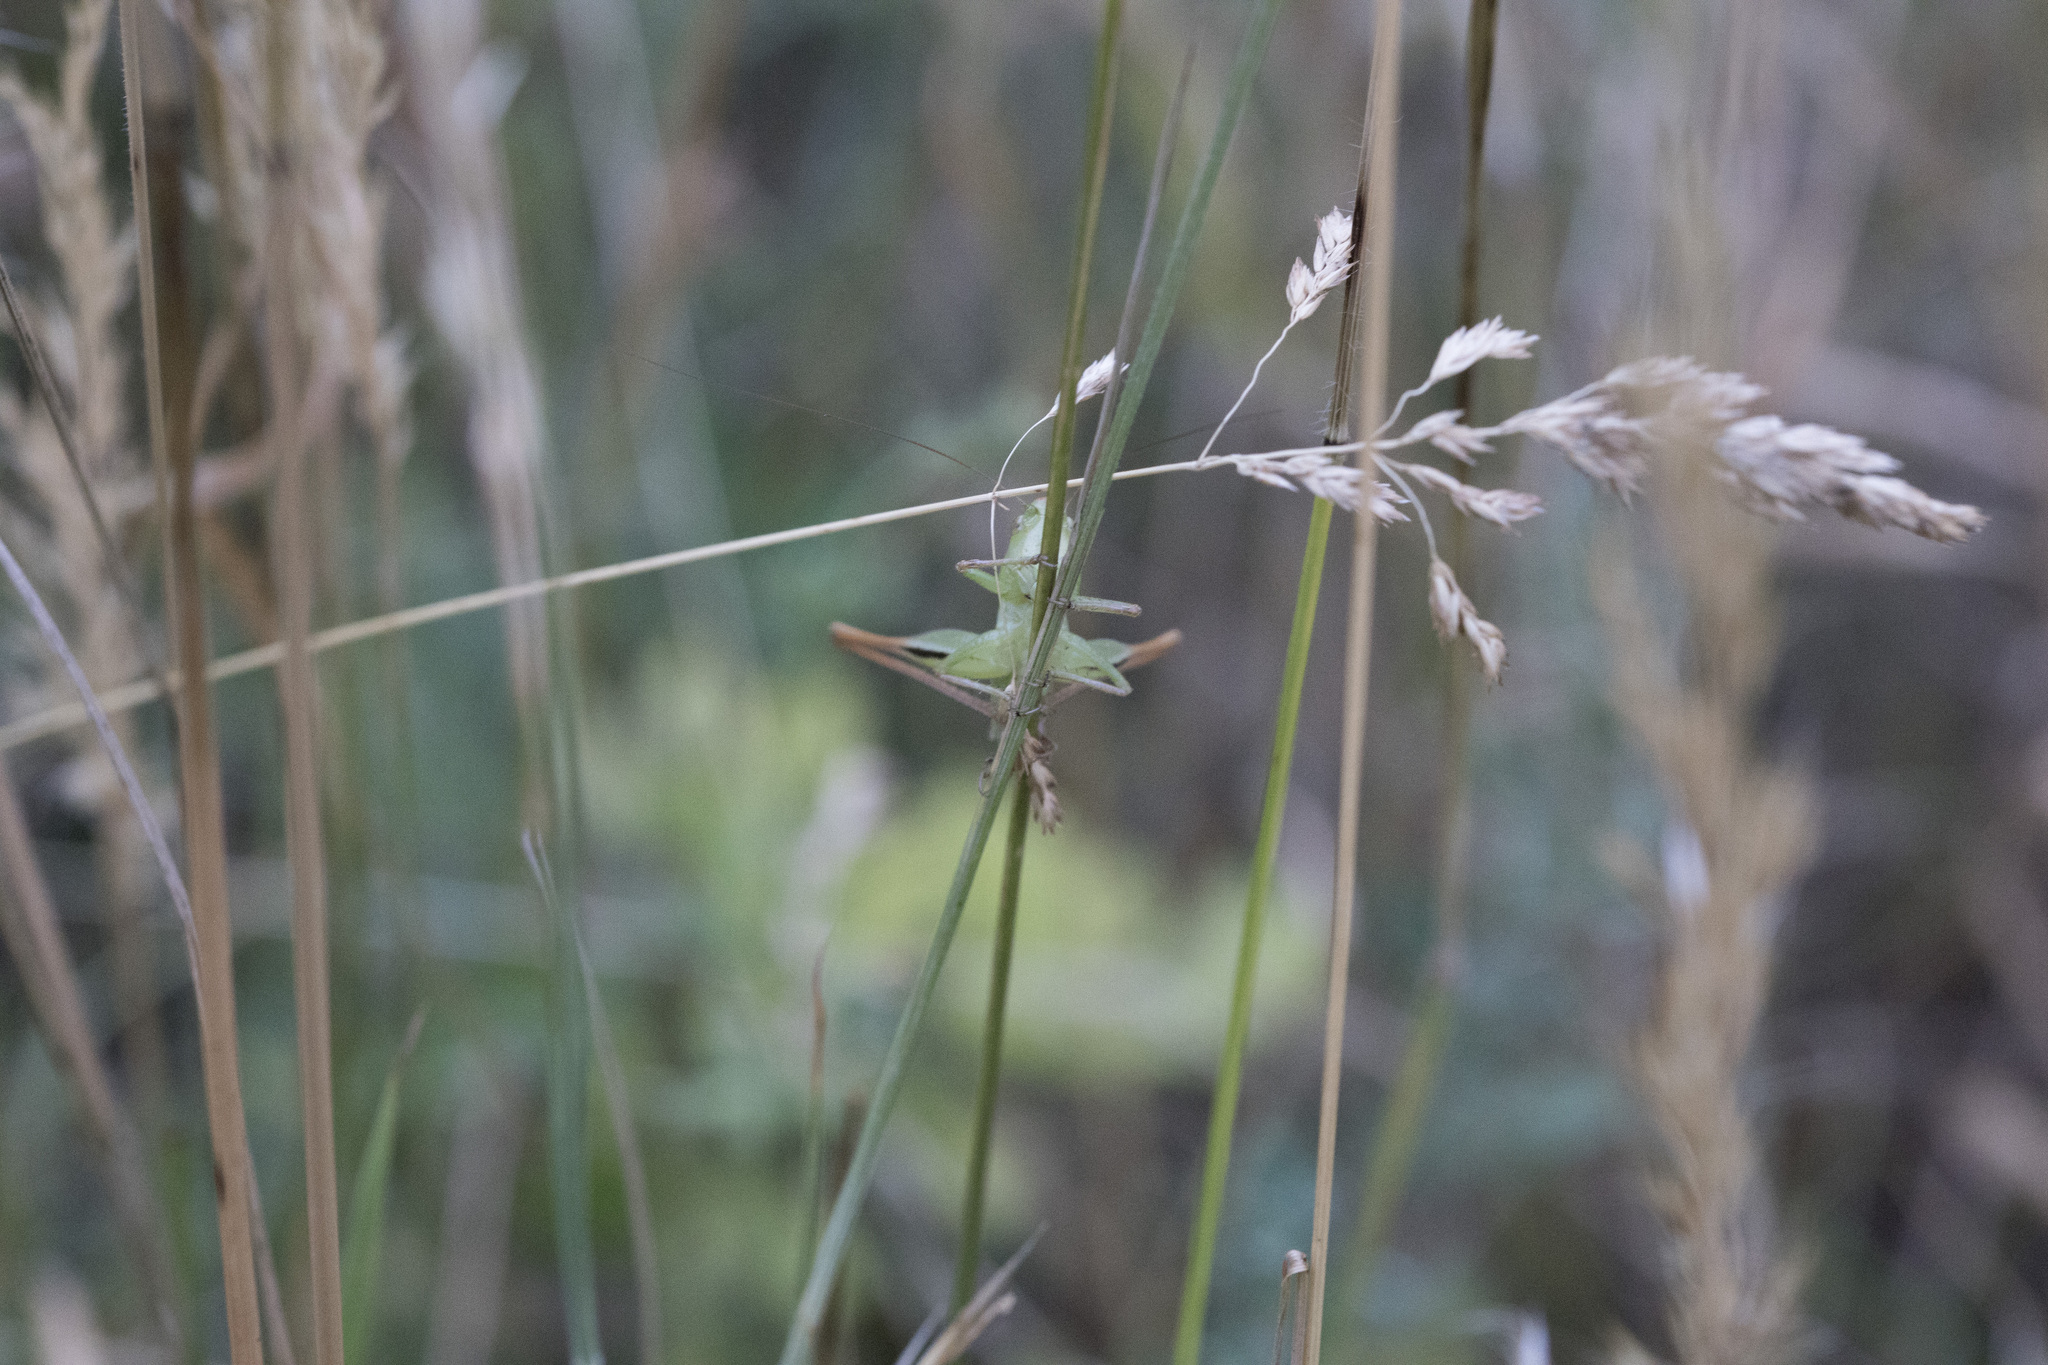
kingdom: Animalia
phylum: Arthropoda
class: Insecta
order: Orthoptera
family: Tettigoniidae
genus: Bicolorana
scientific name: Bicolorana bicolor
